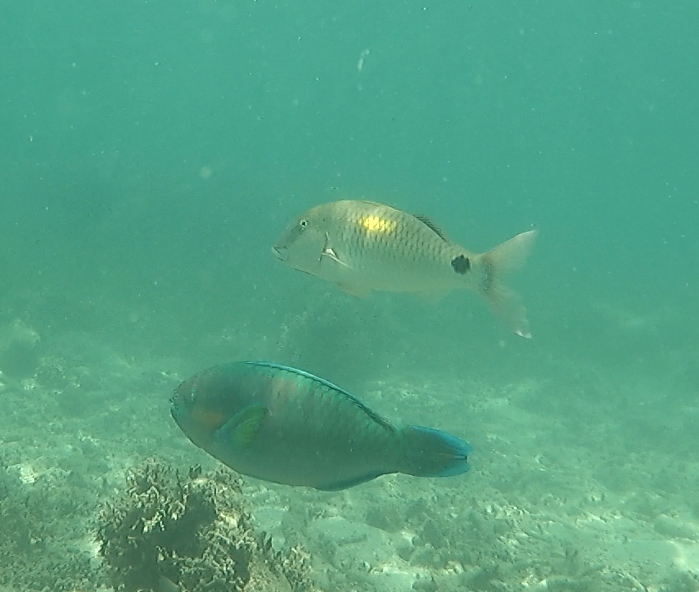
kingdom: Animalia
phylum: Chordata
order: Perciformes
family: Scaridae
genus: Scarus
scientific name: Scarus rivulatus
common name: Surf parrotfish
